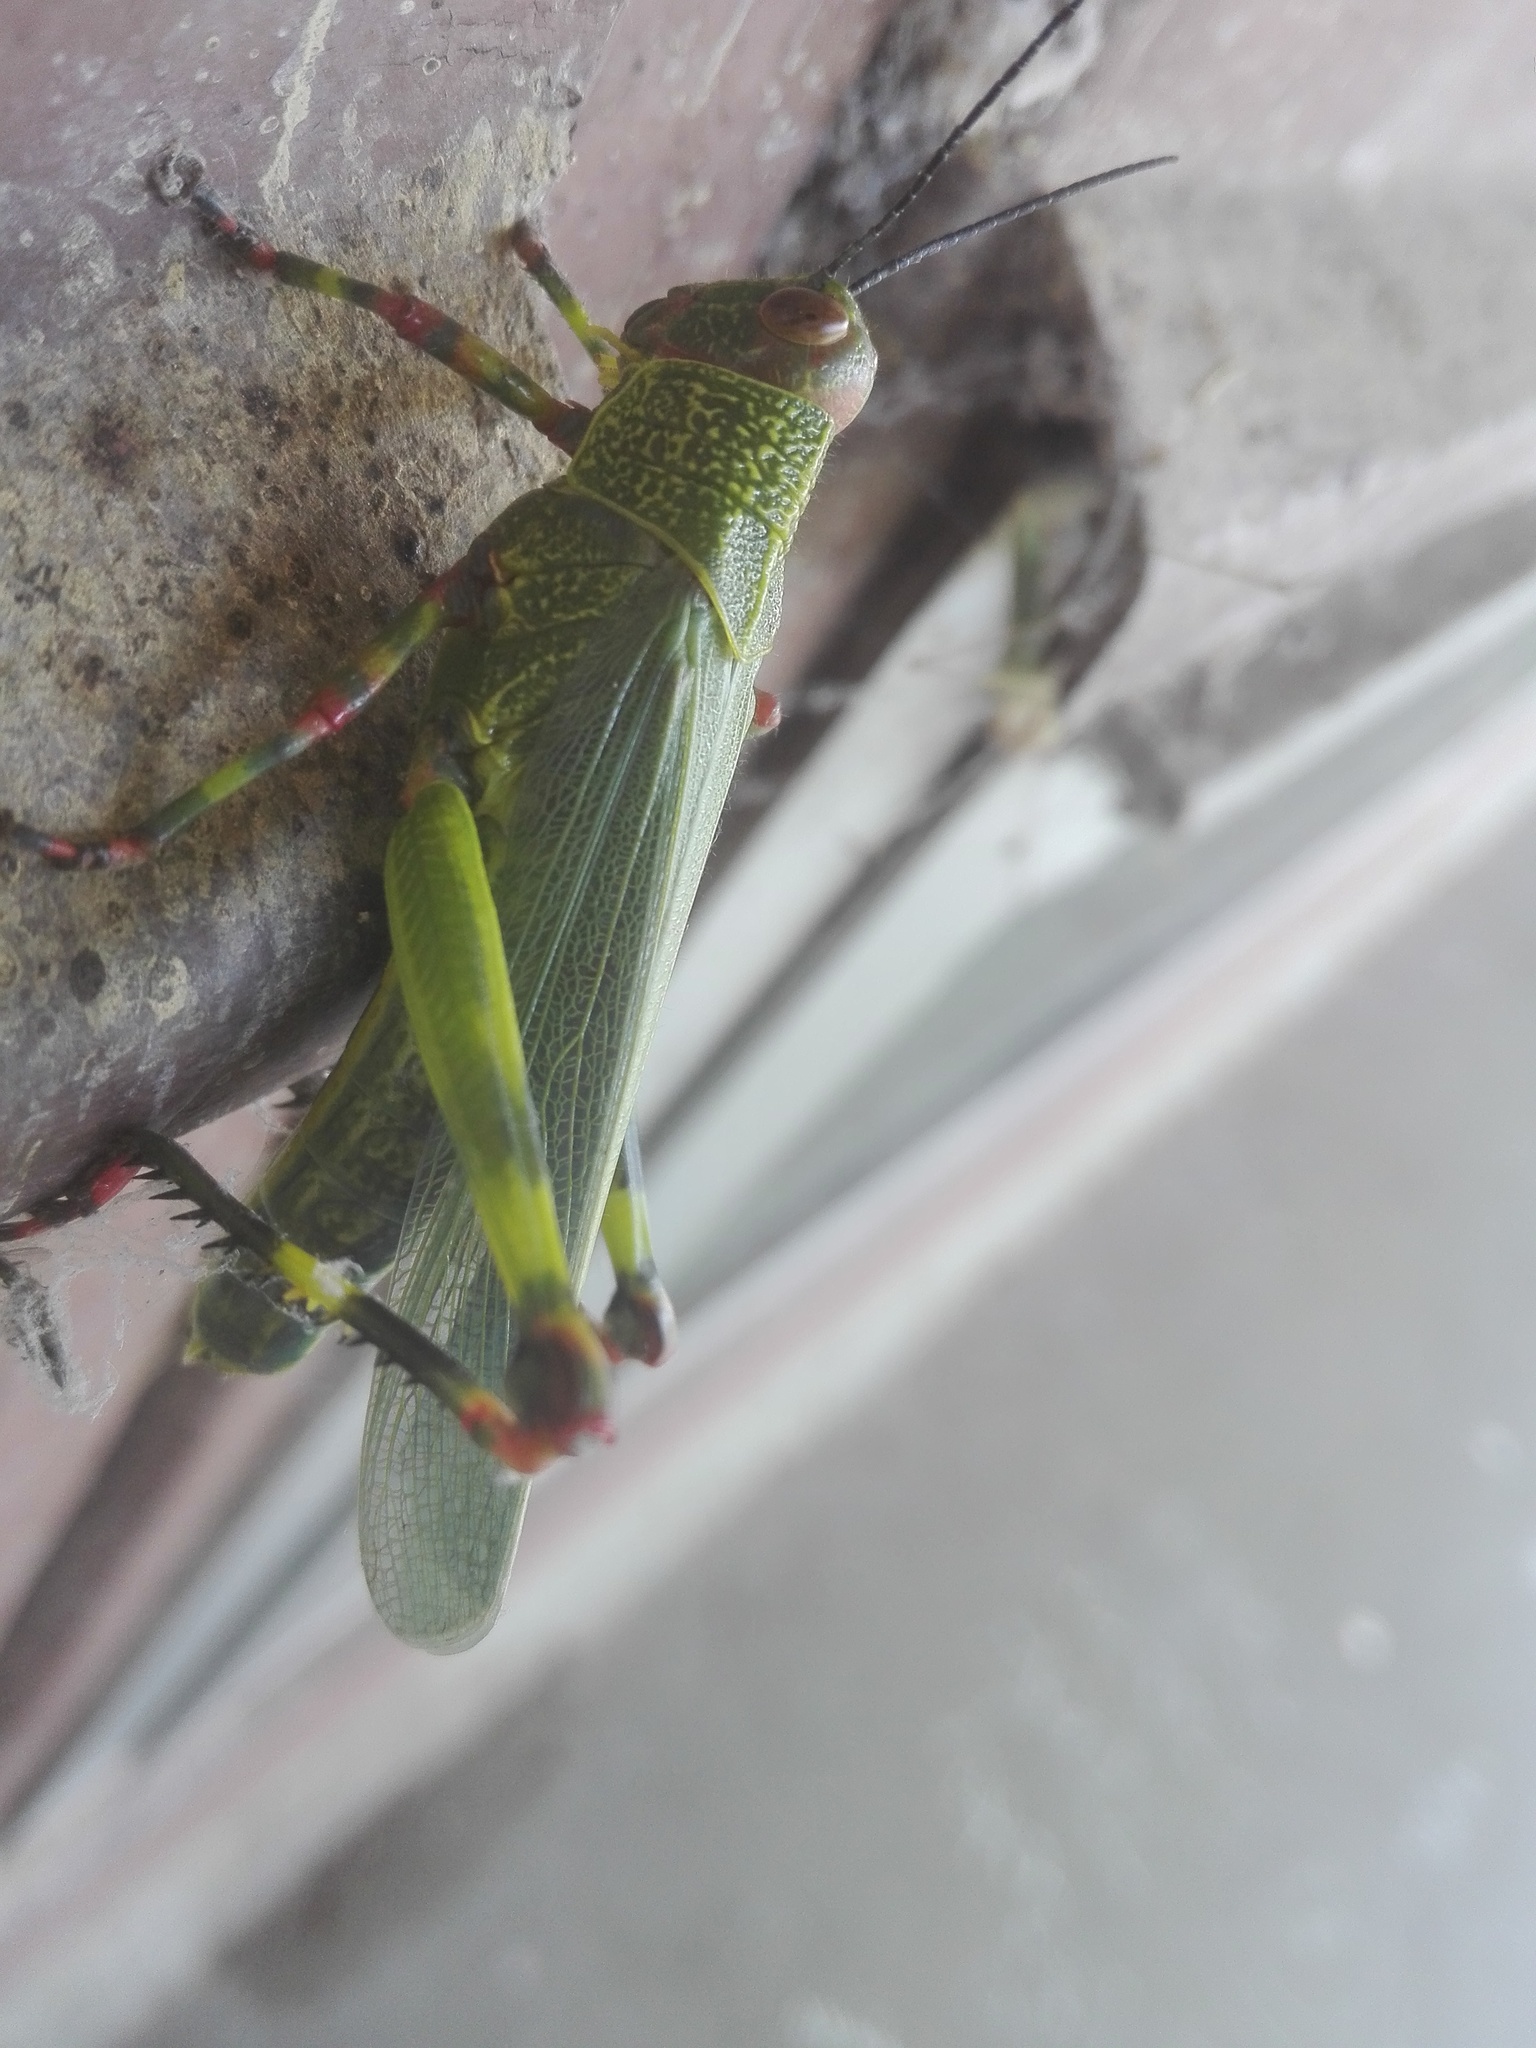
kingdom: Animalia
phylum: Arthropoda
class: Insecta
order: Orthoptera
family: Romaleidae
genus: Zoniopoda
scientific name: Zoniopoda tarsata
